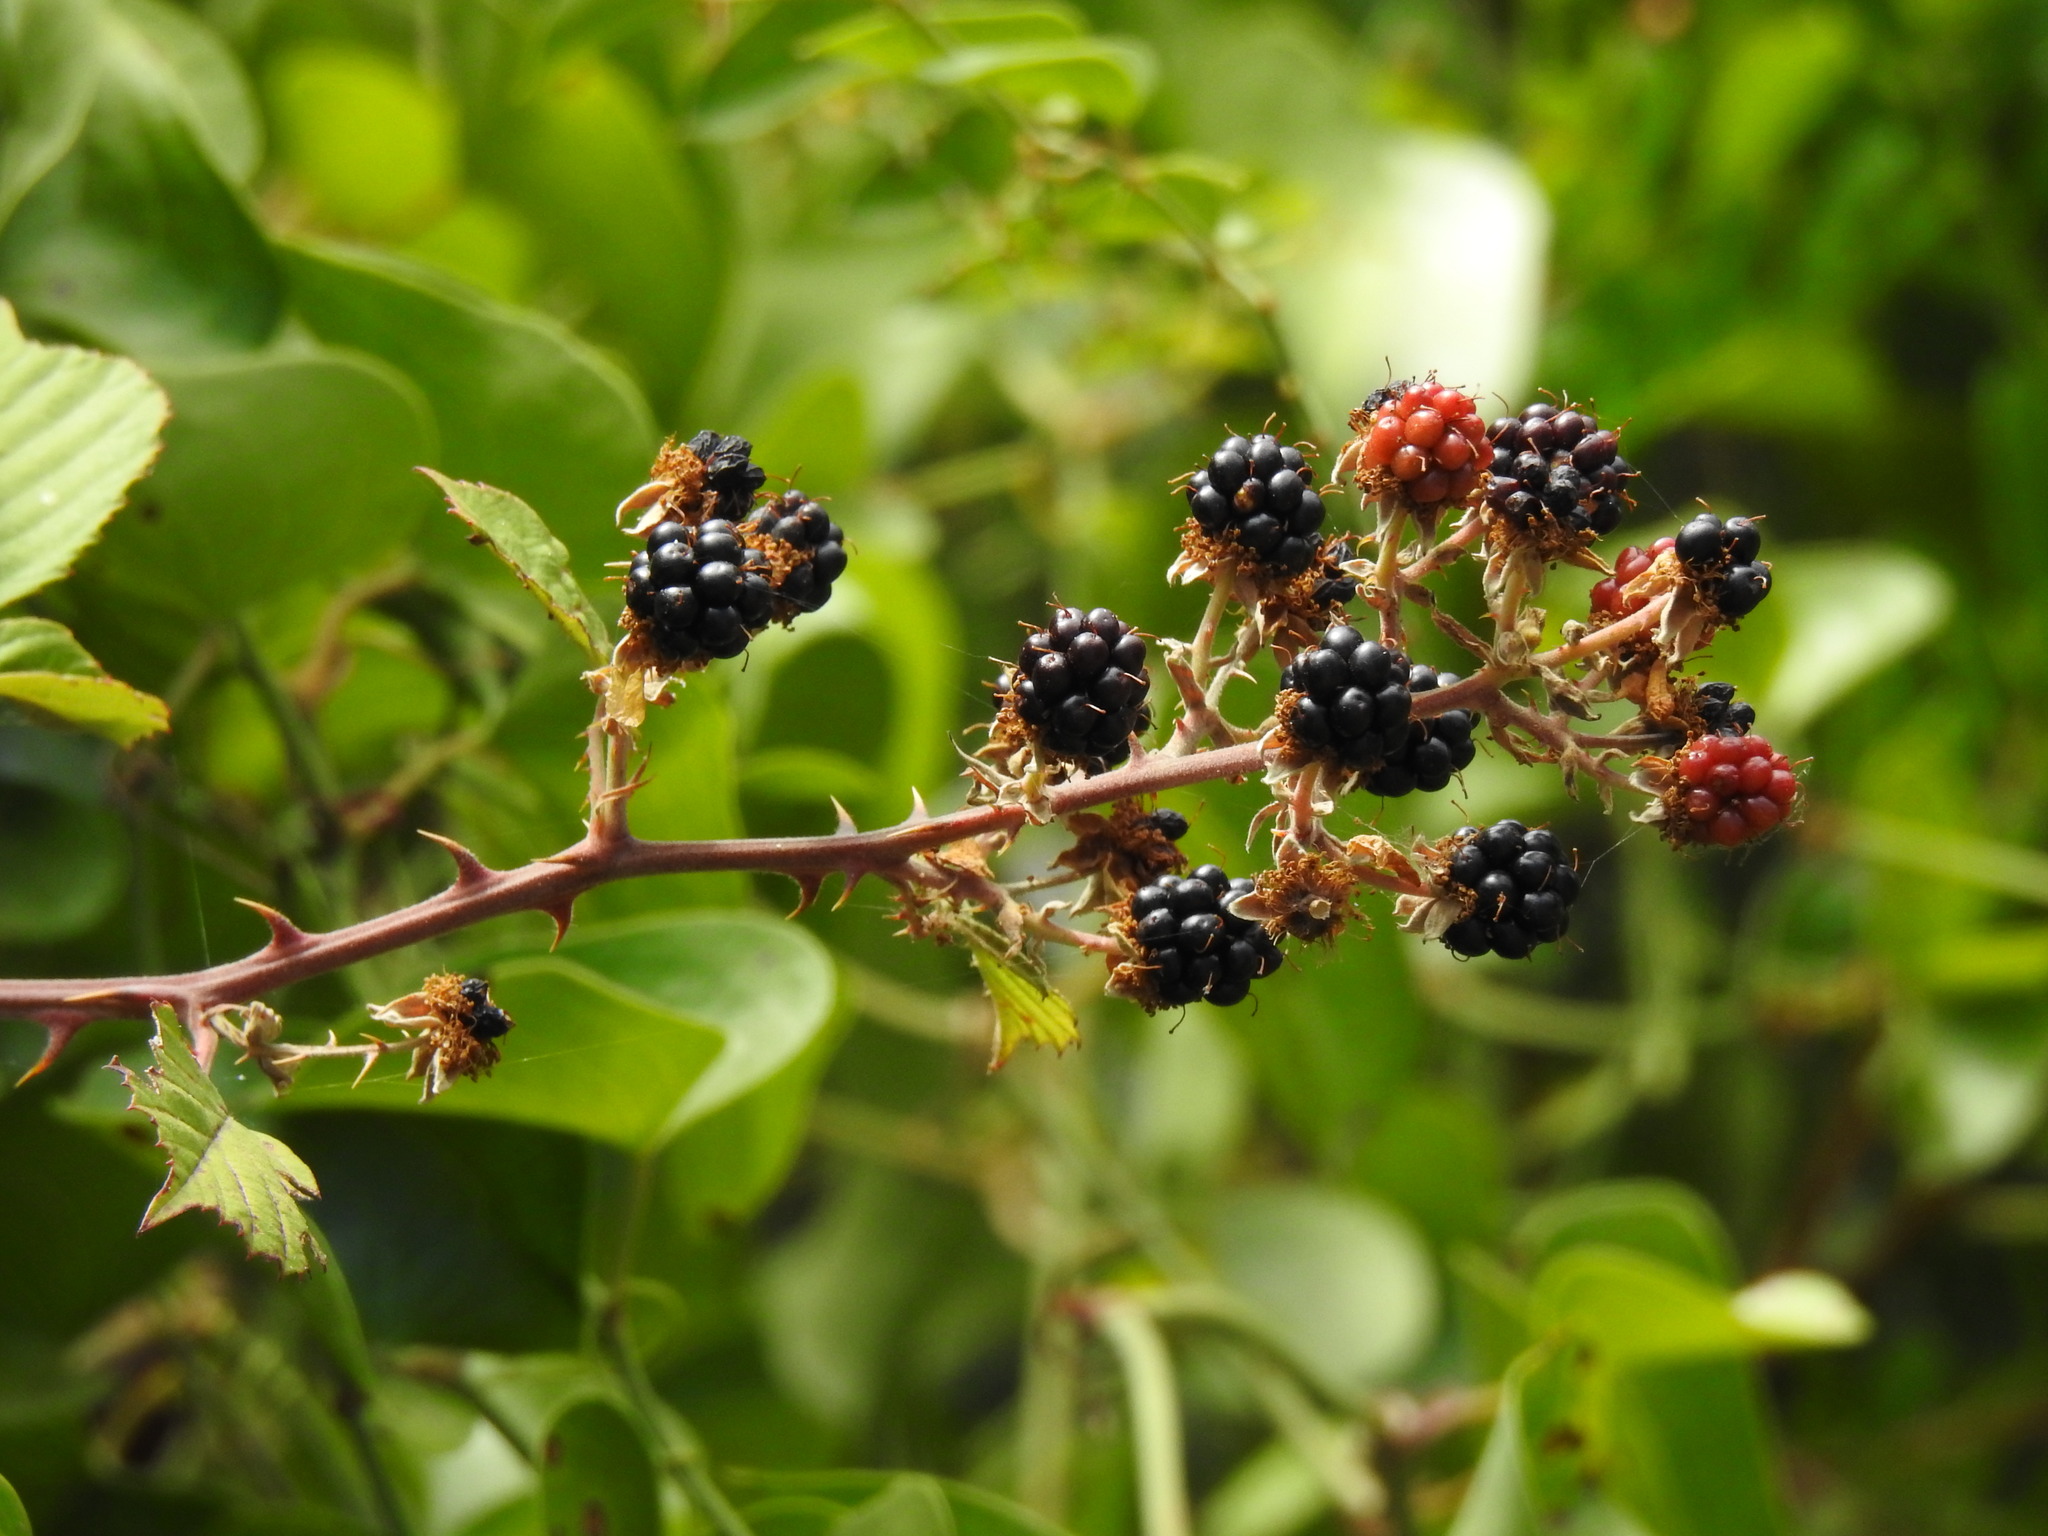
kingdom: Plantae
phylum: Tracheophyta
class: Magnoliopsida
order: Rosales
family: Rosaceae
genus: Rubus
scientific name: Rubus ulmifolius
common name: Elmleaf blackberry
